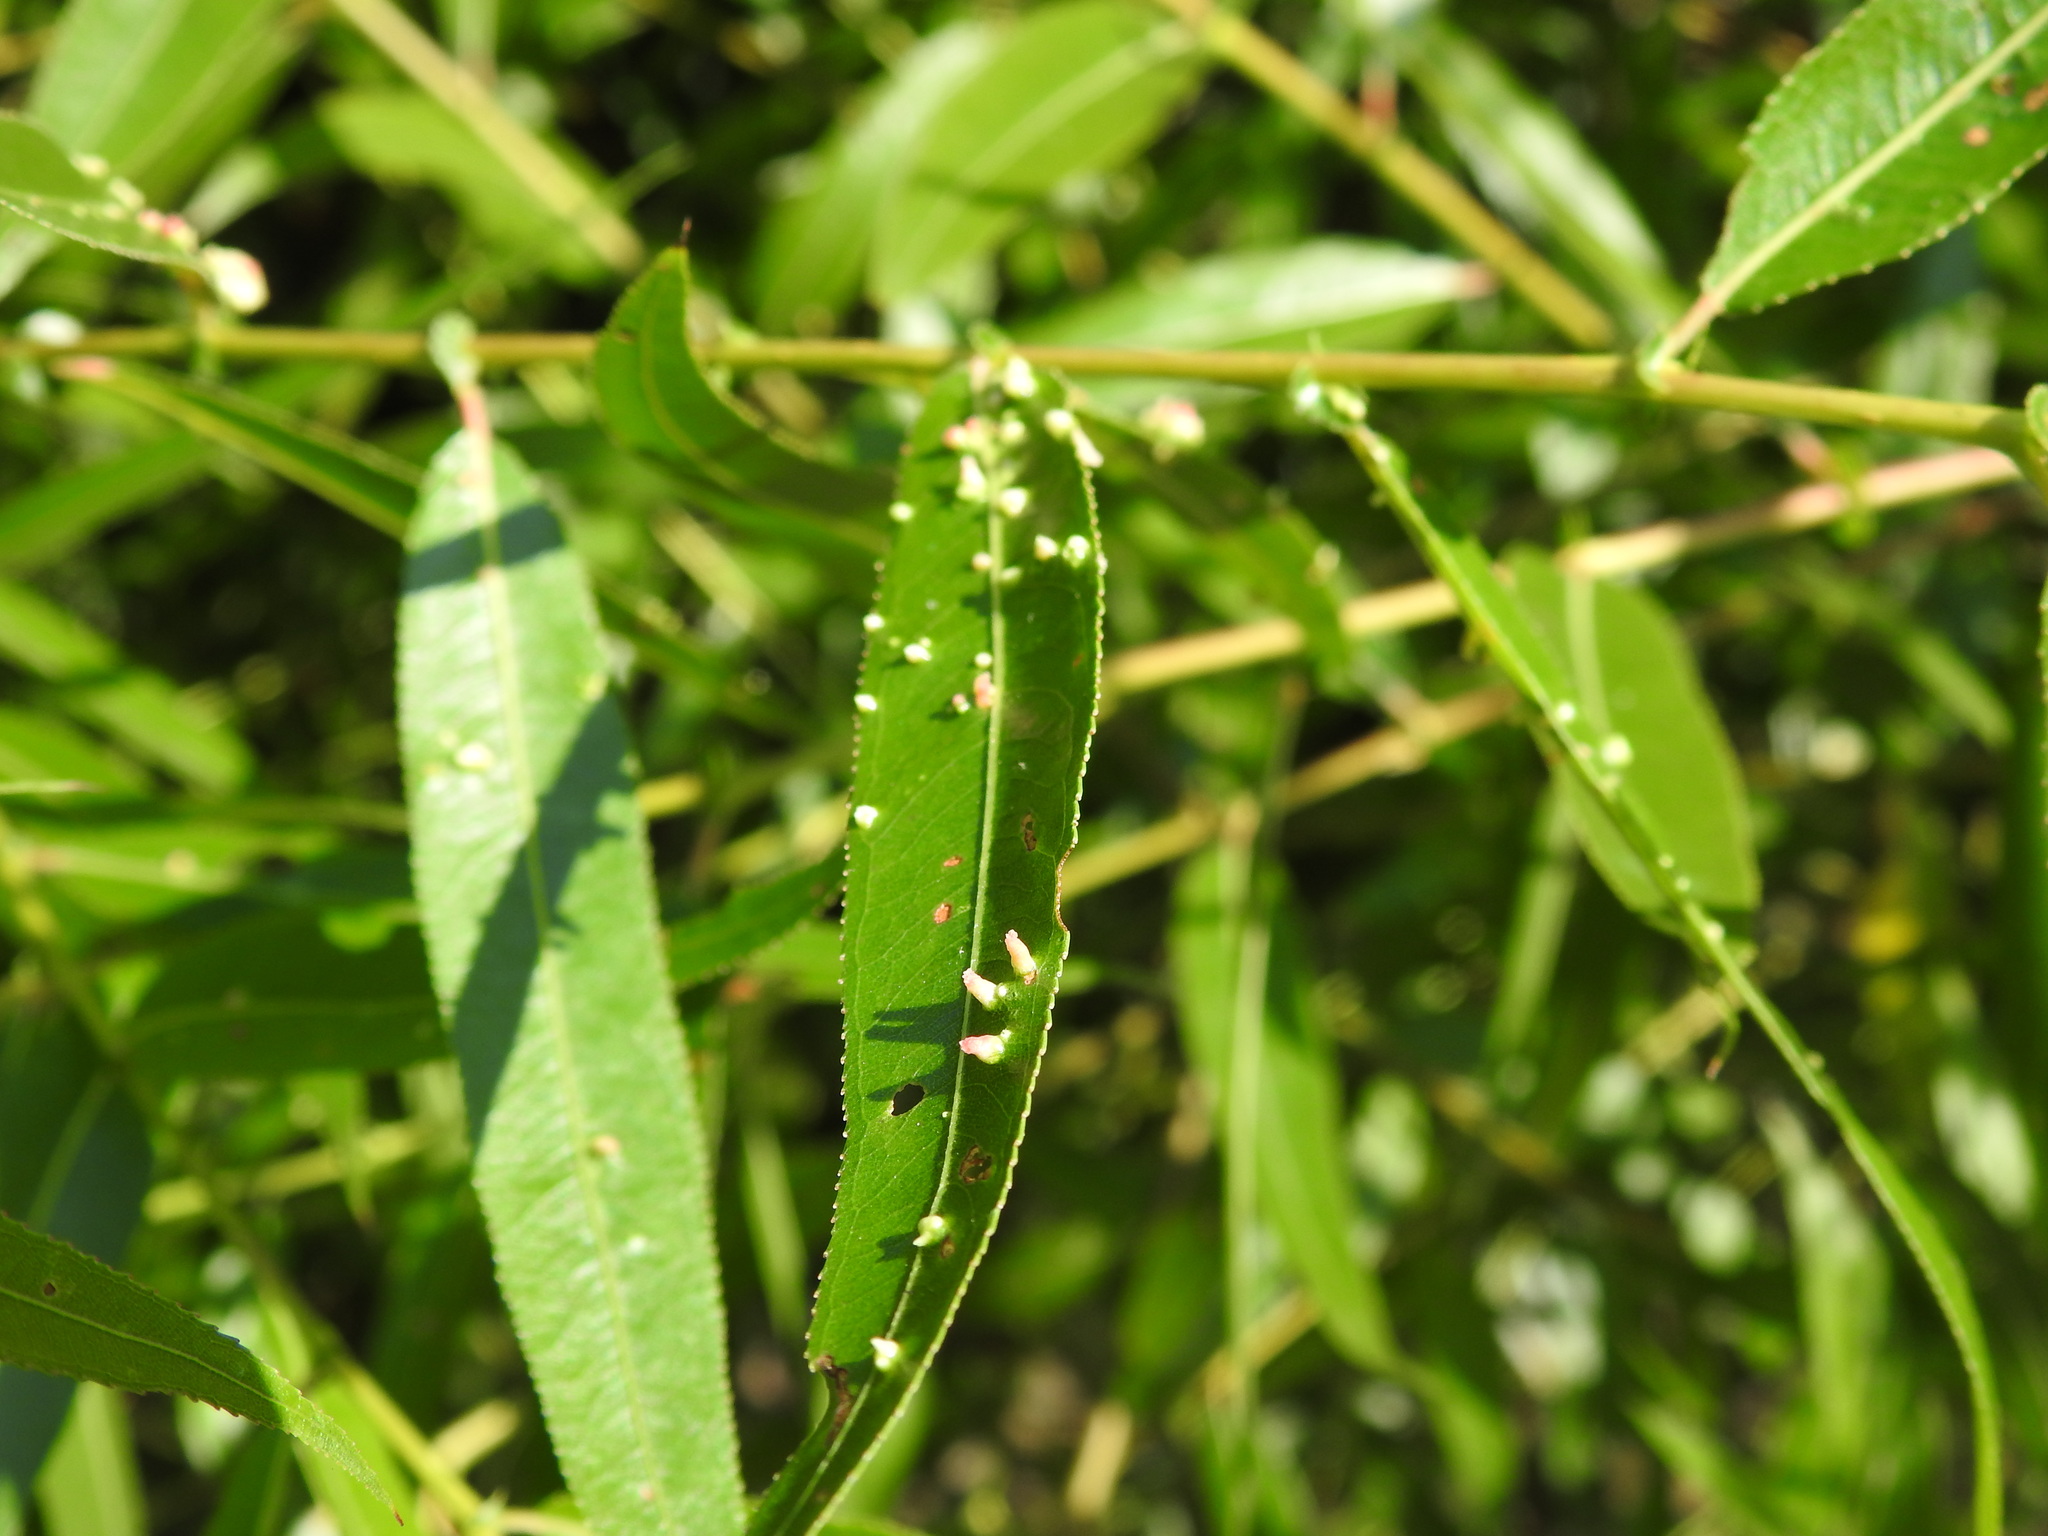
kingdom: Animalia
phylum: Arthropoda
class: Arachnida
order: Trombidiformes
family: Eriophyidae
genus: Aculus
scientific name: Aculus tetanothrix
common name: Willow bead gall mite
